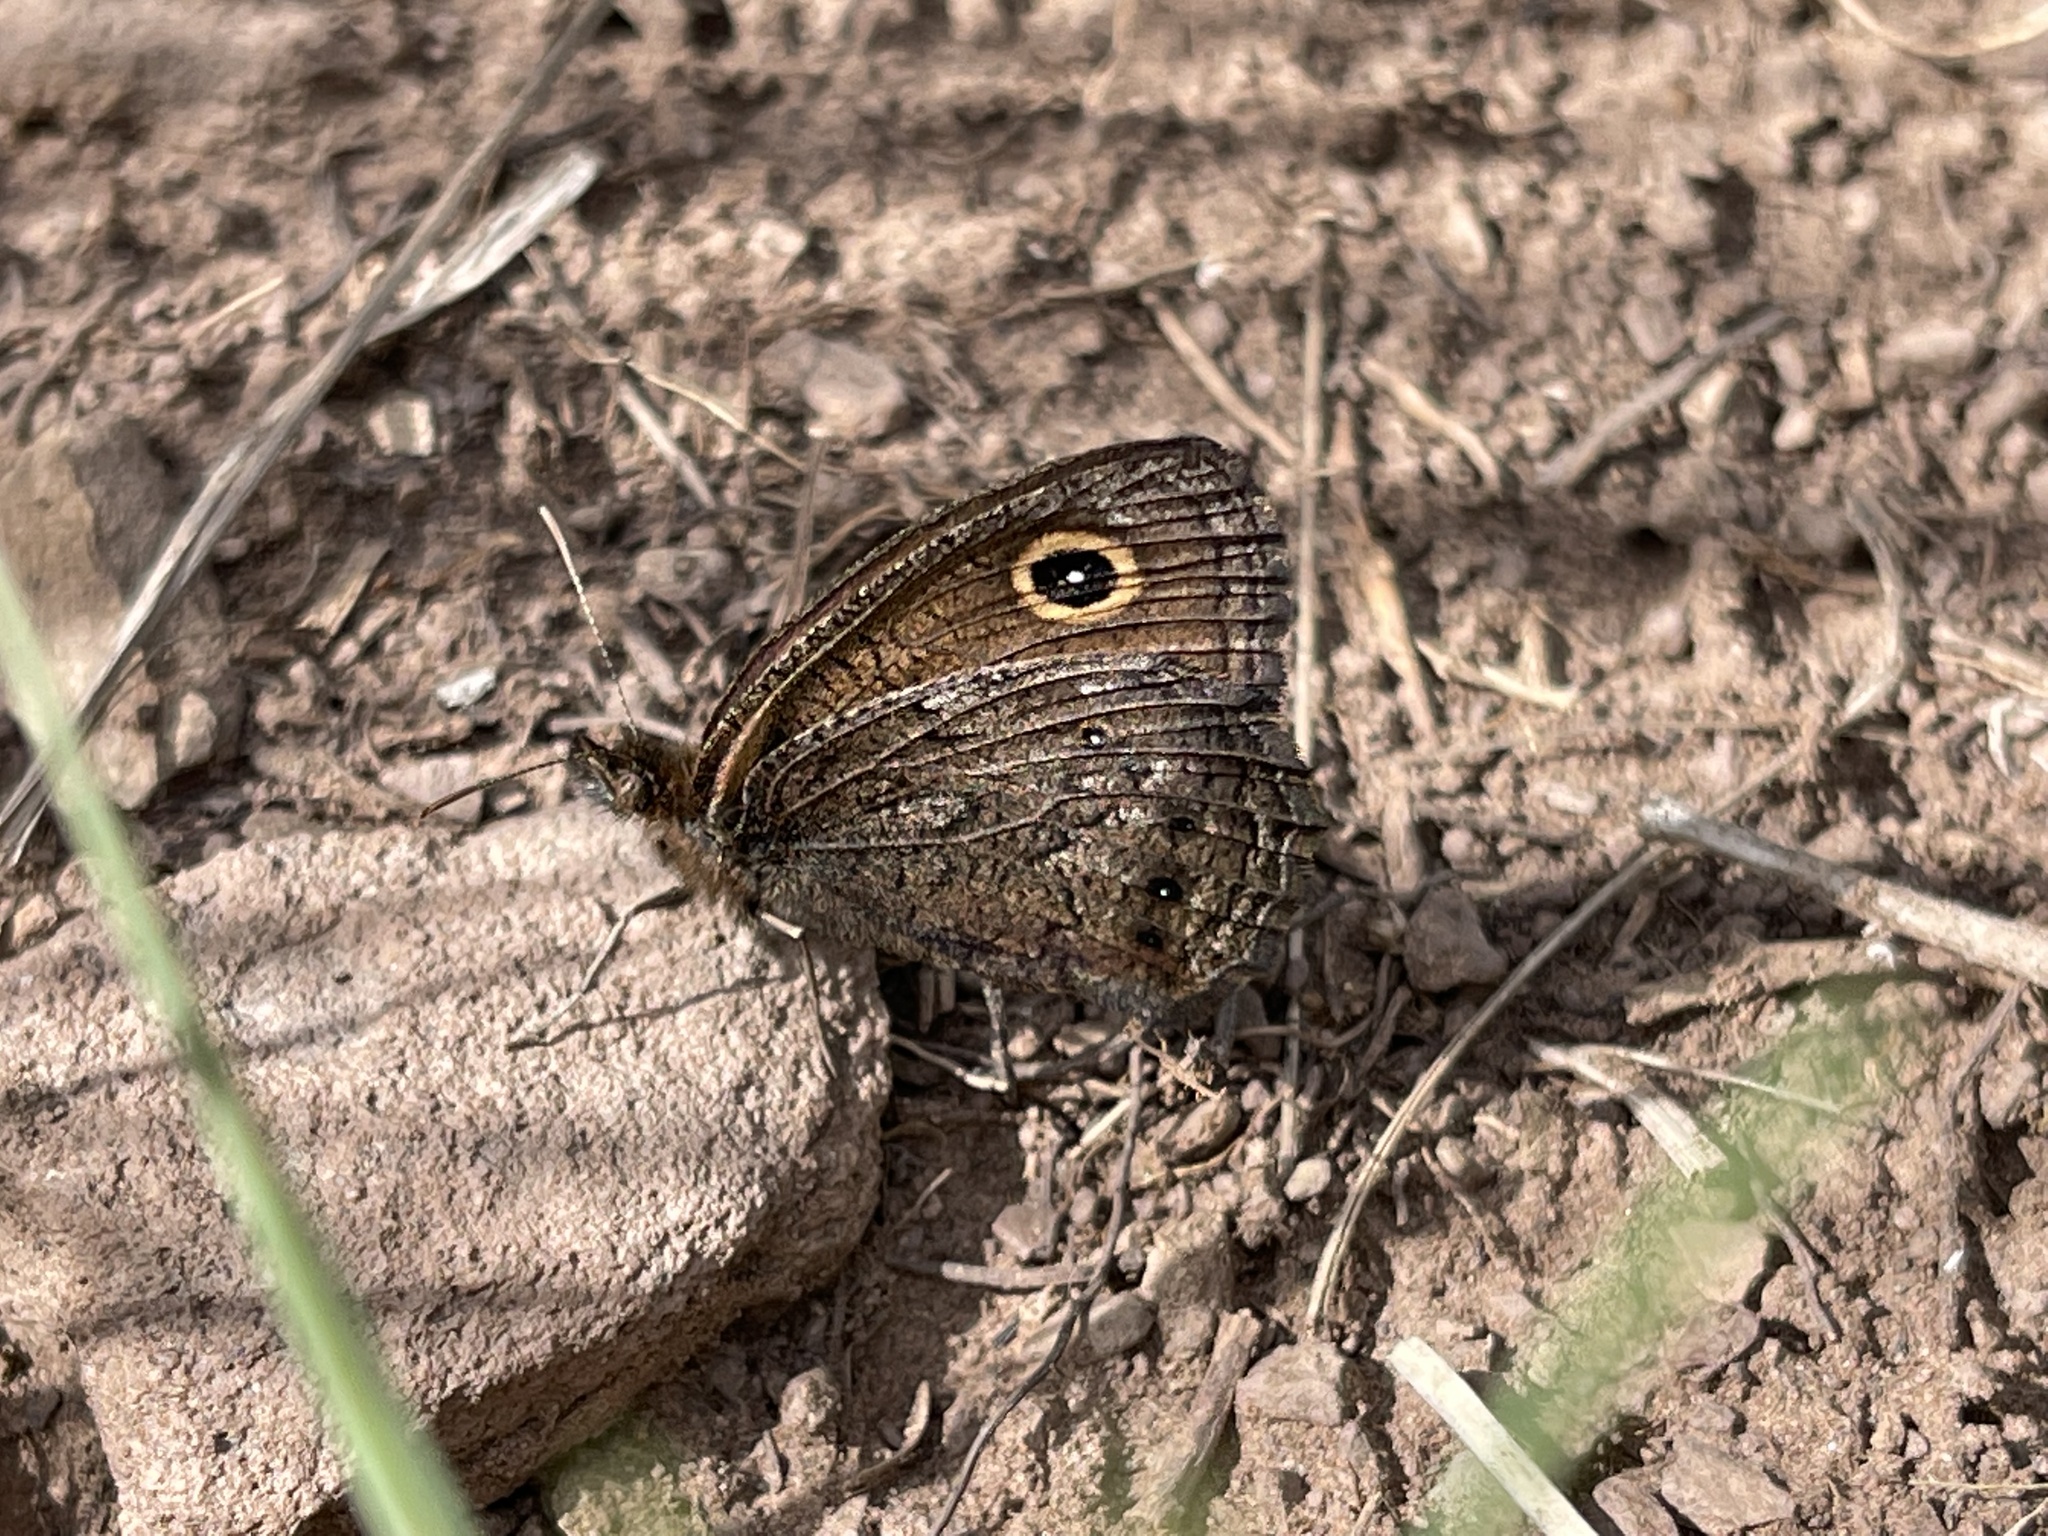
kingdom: Animalia
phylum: Arthropoda
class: Insecta
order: Lepidoptera
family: Nymphalidae
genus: Cercyonis
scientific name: Cercyonis oetus
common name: Small wood-nymph
